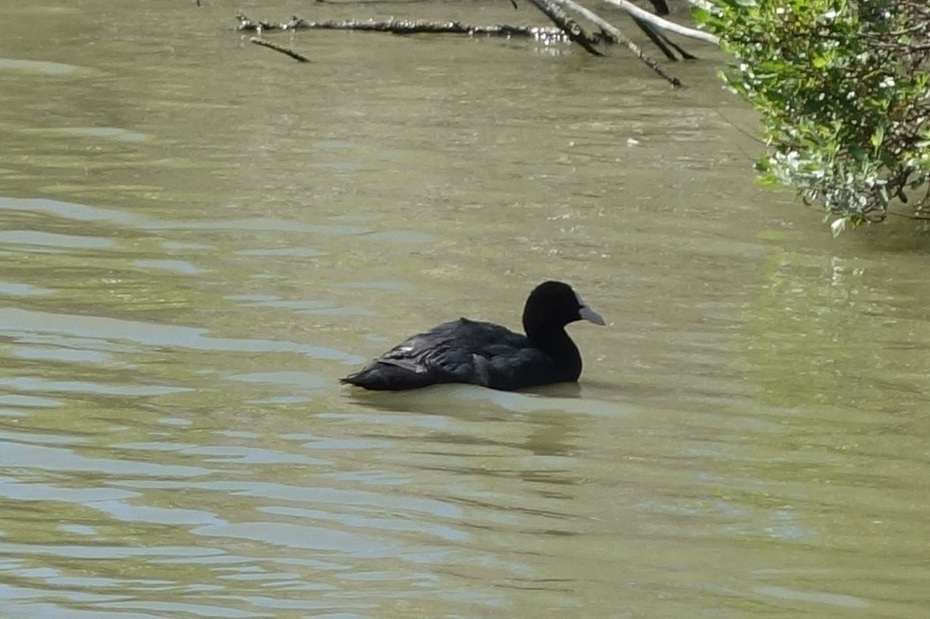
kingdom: Animalia
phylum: Chordata
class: Aves
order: Gruiformes
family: Rallidae
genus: Fulica
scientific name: Fulica atra
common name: Eurasian coot
